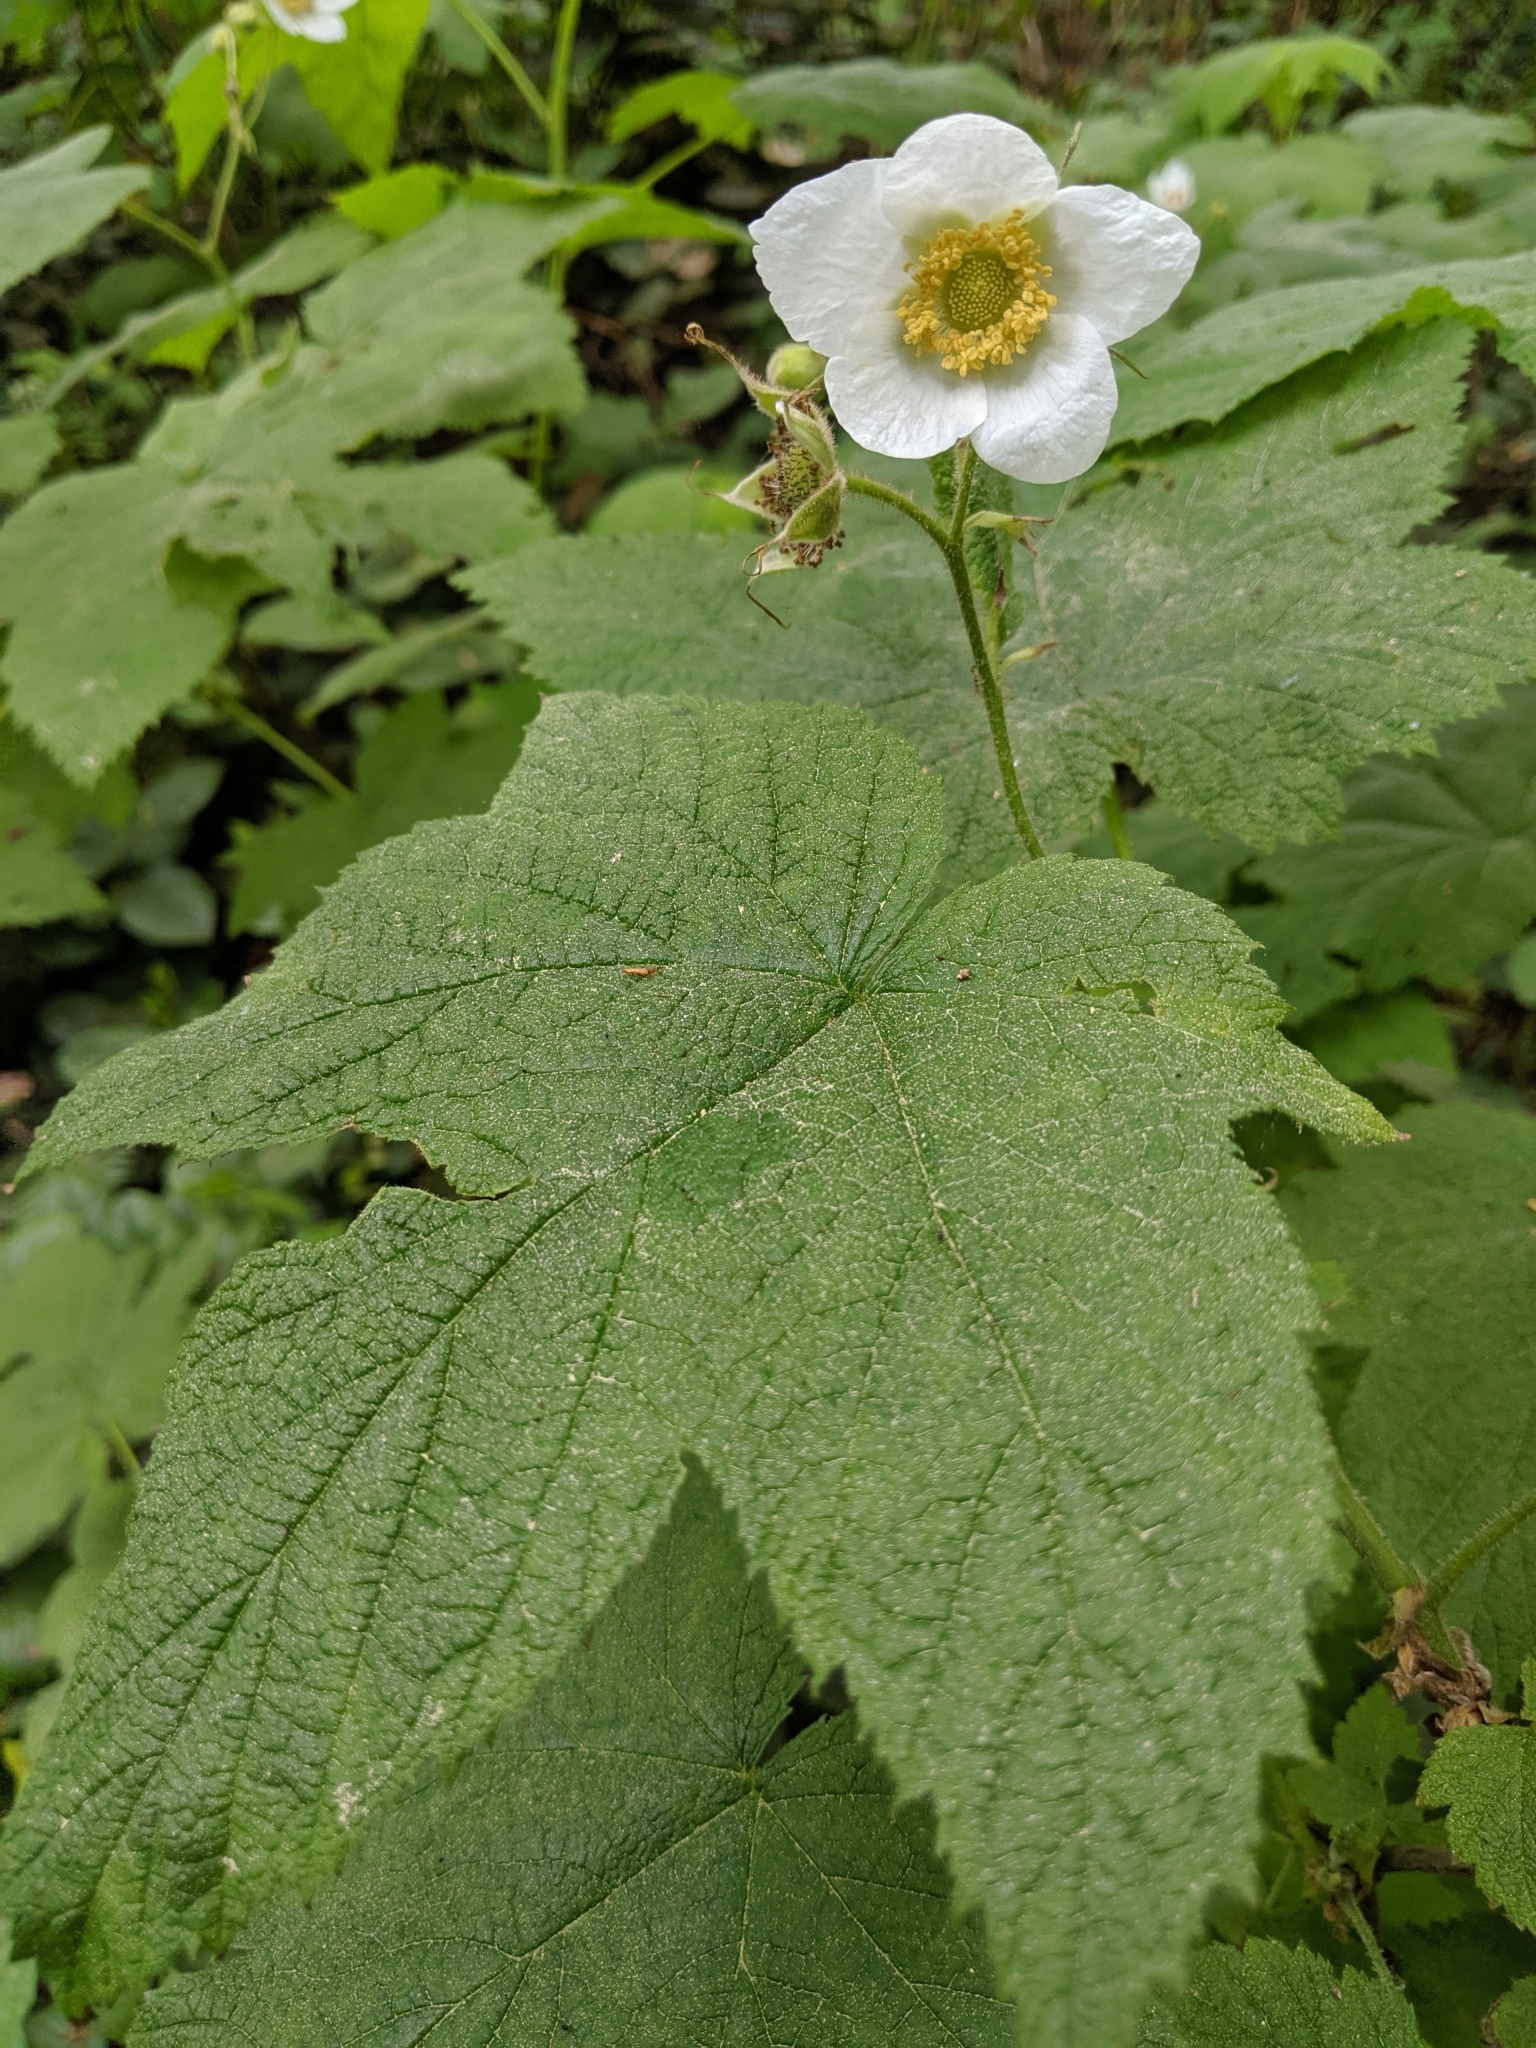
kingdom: Plantae
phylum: Tracheophyta
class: Magnoliopsida
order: Rosales
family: Rosaceae
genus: Rubus
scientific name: Rubus parviflorus
